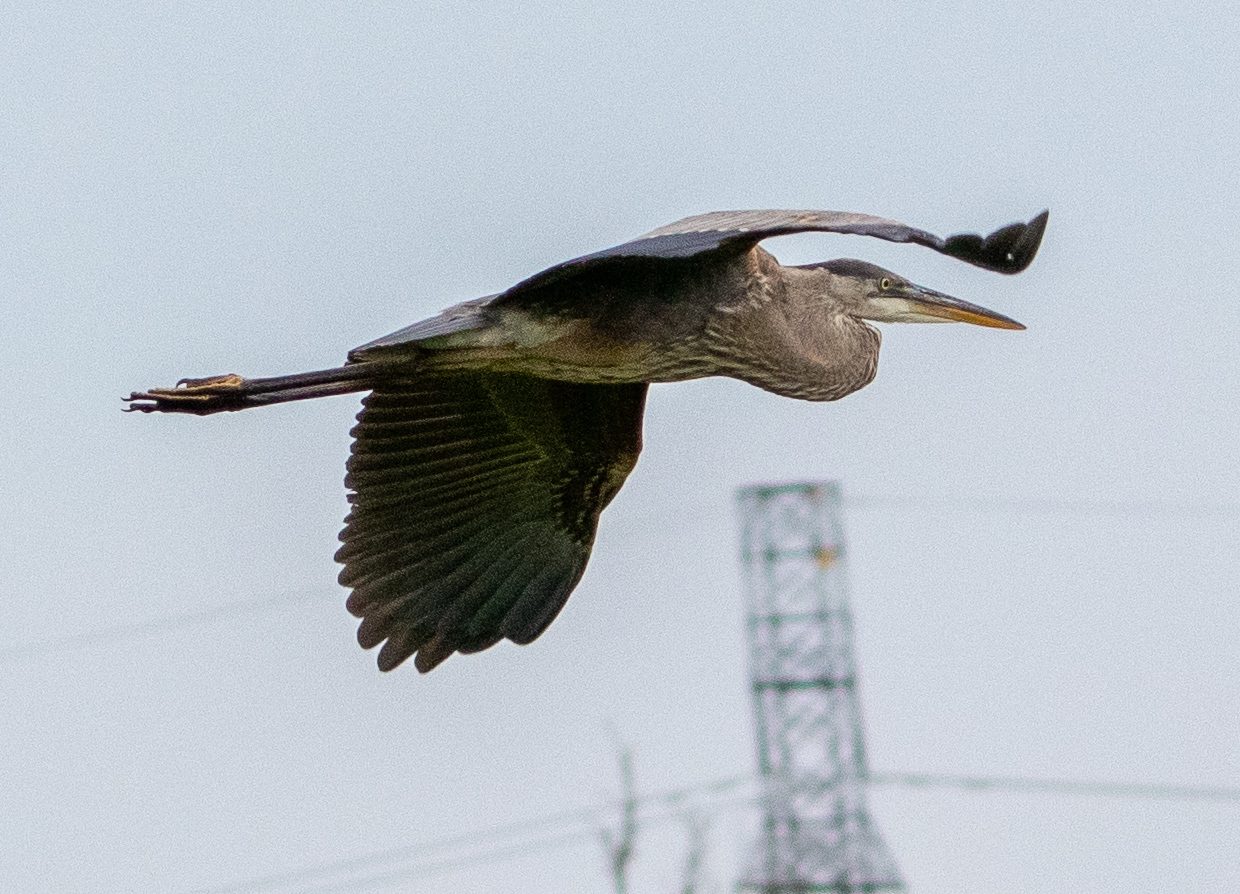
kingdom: Animalia
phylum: Chordata
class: Aves
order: Pelecaniformes
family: Ardeidae
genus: Ardea
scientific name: Ardea herodias
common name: Great blue heron
